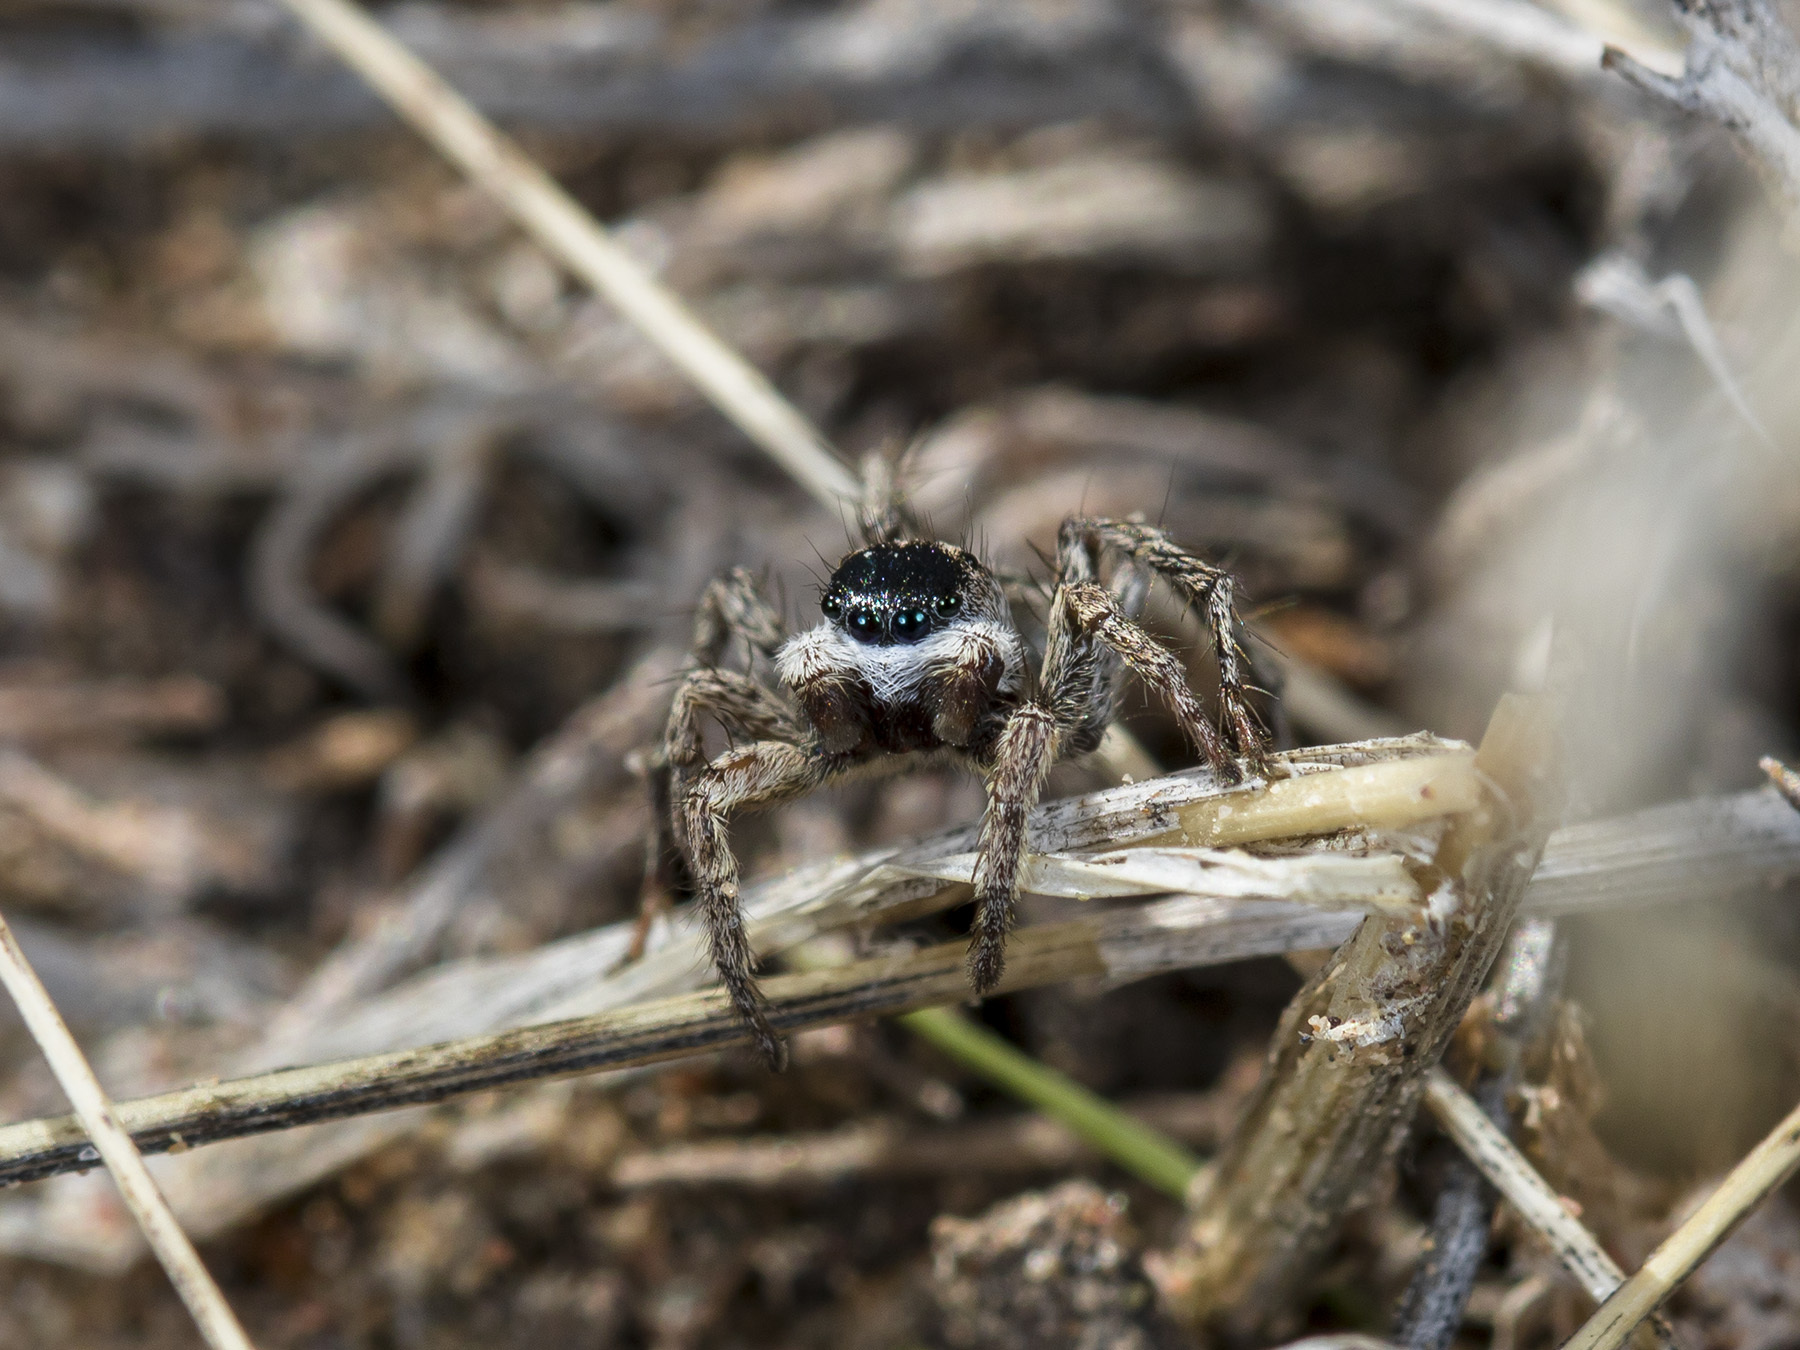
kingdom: Animalia
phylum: Arthropoda
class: Arachnida
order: Araneae
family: Salticidae
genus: Aelurillus
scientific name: Aelurillus m-nigrum
